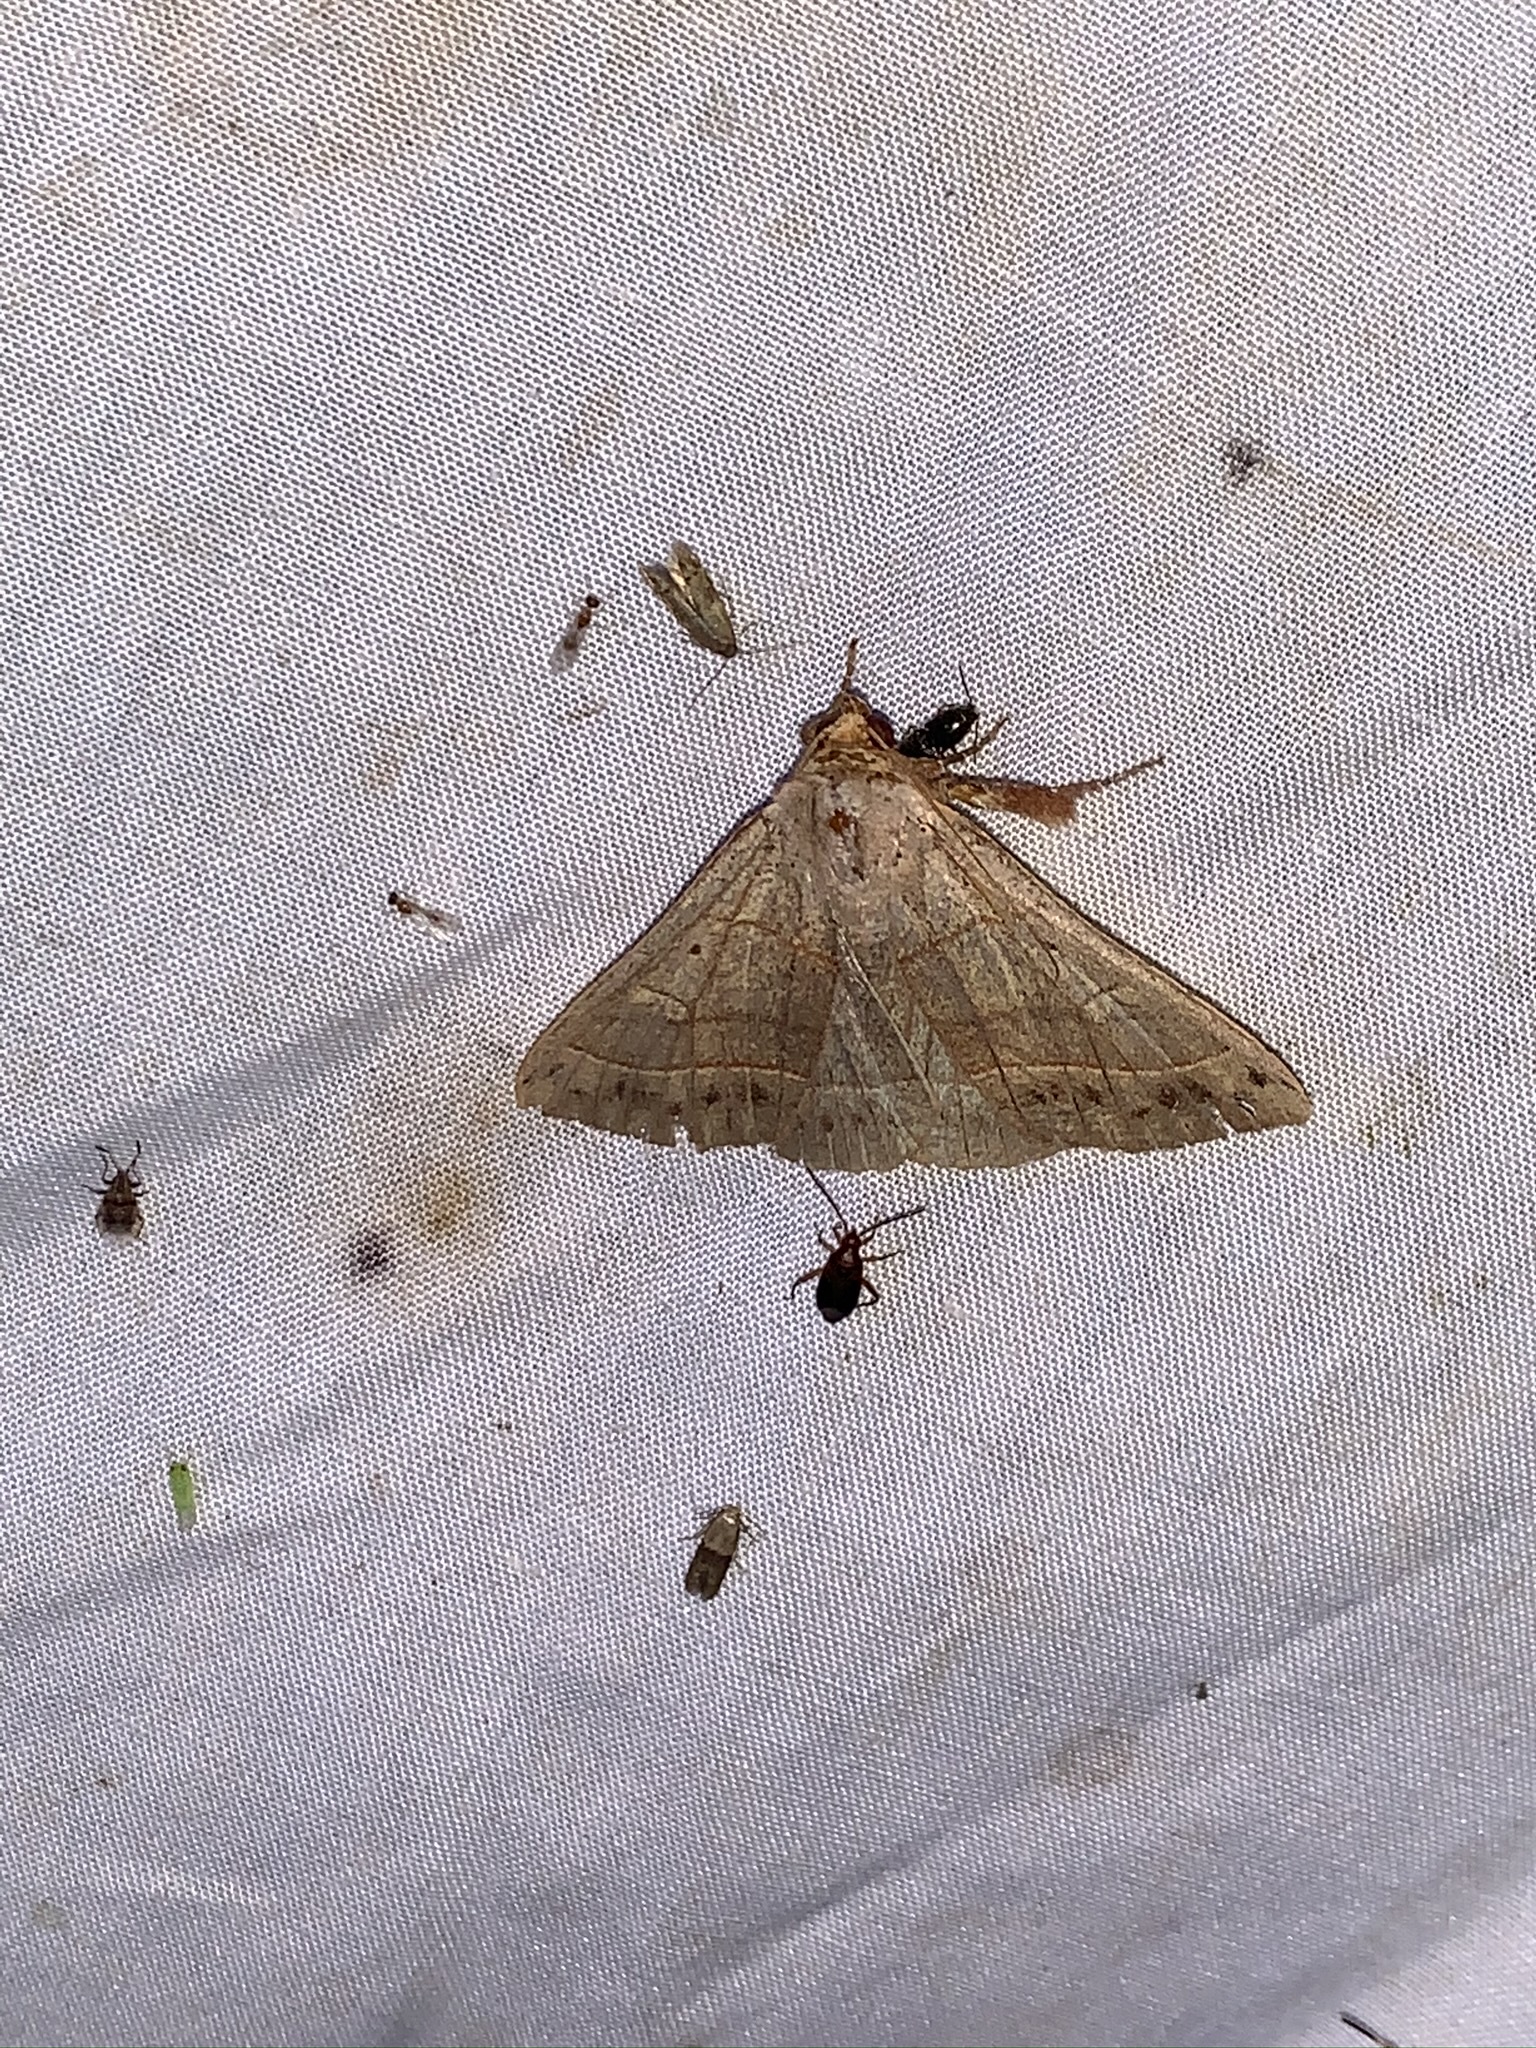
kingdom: Animalia
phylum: Arthropoda
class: Insecta
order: Lepidoptera
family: Erebidae
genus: Panopoda
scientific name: Panopoda rufimargo
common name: Red-lined panopoda moth
